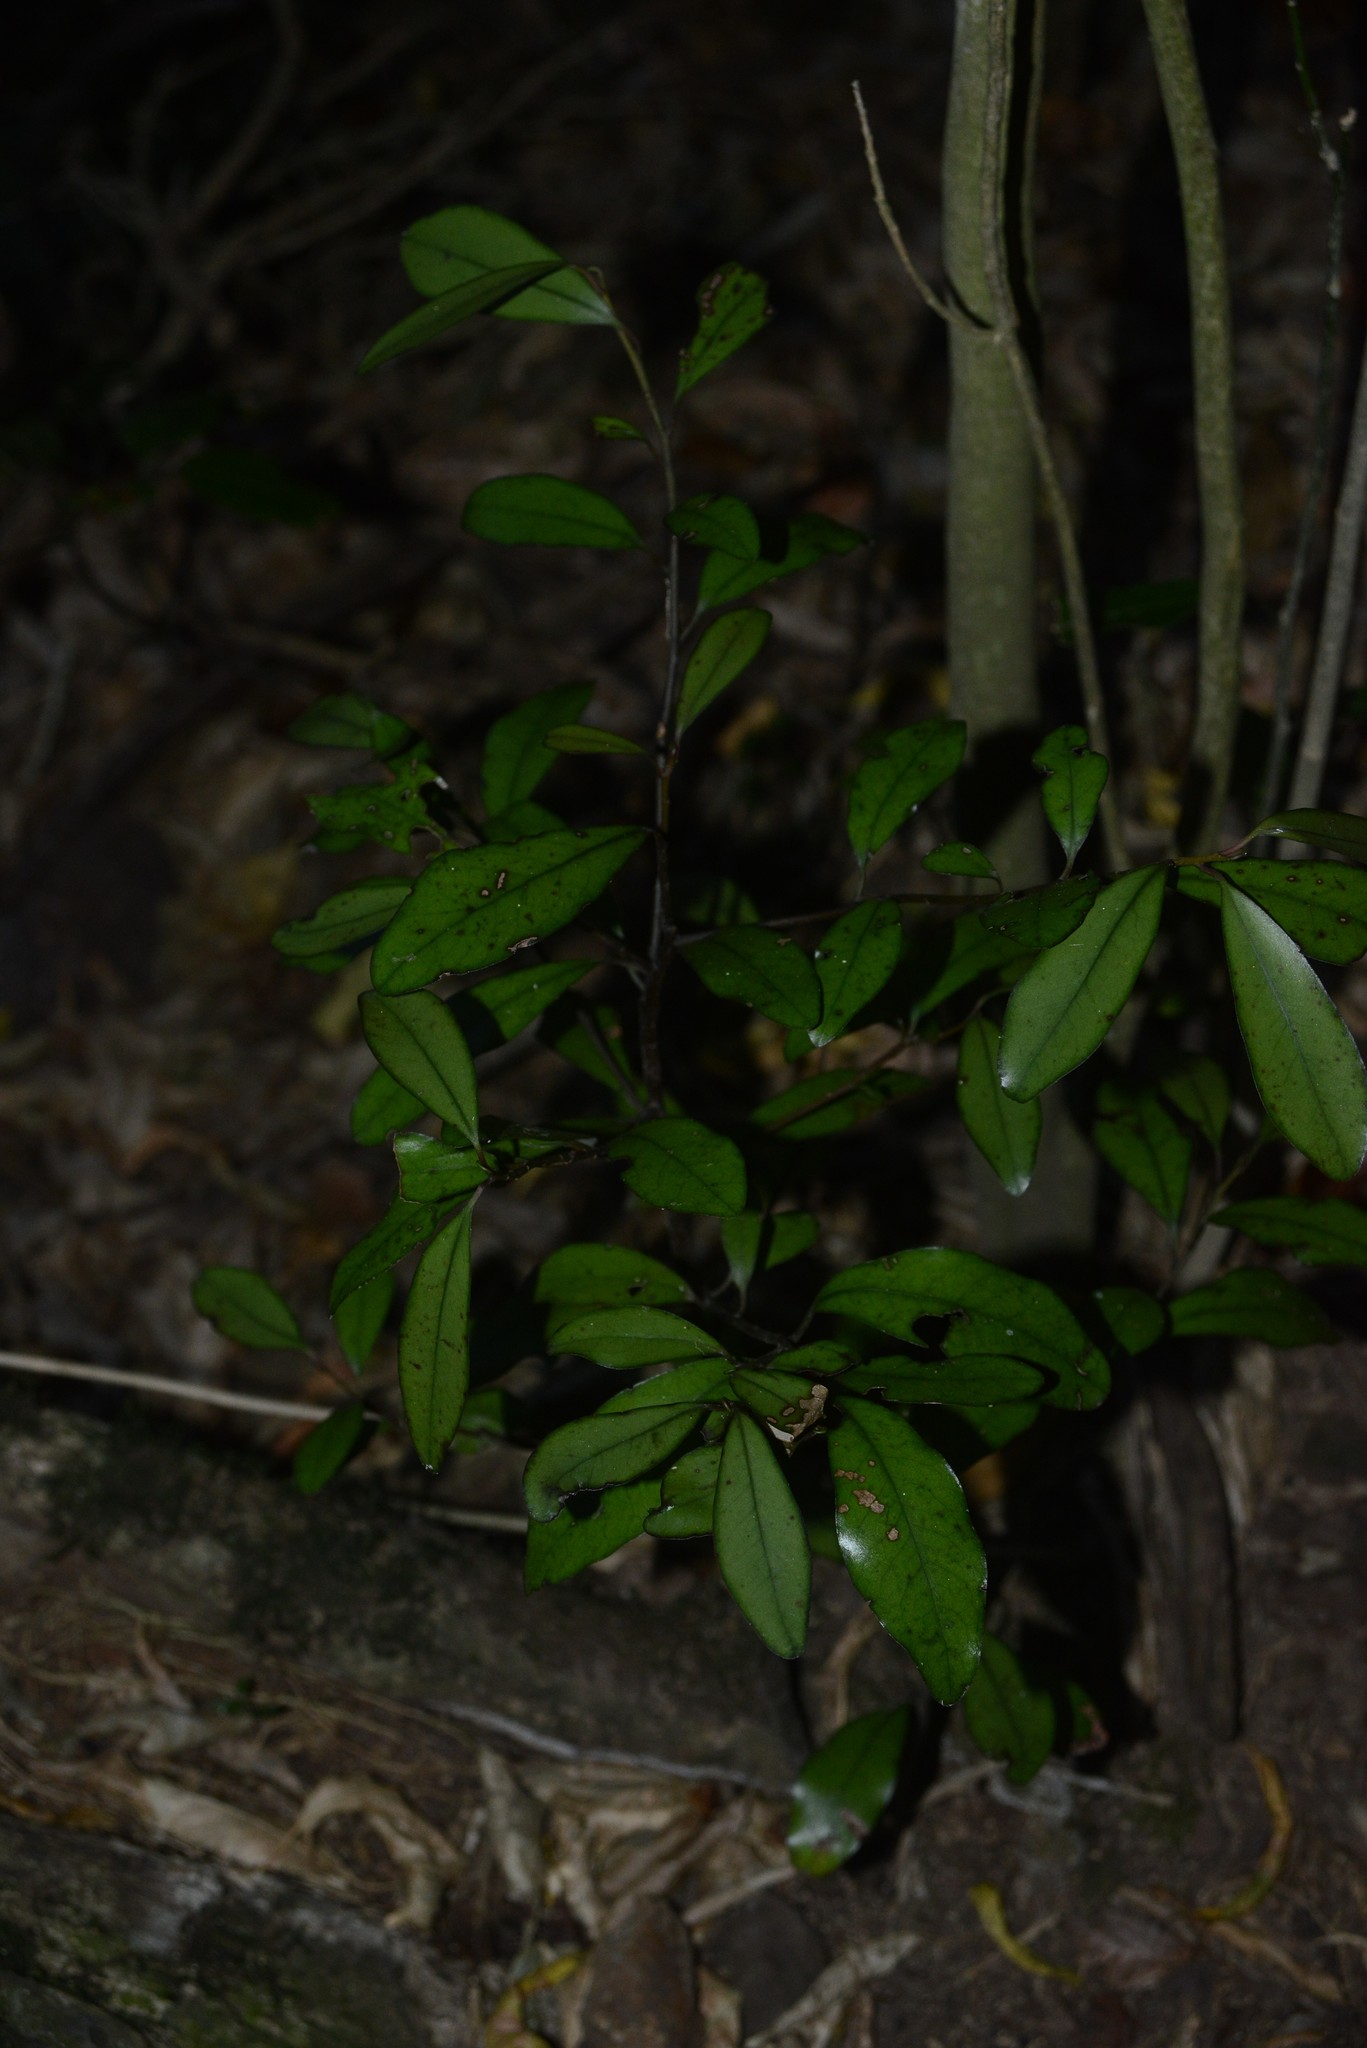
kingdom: Plantae
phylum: Tracheophyta
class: Magnoliopsida
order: Canellales
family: Winteraceae
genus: Pseudowintera
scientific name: Pseudowintera colorata
